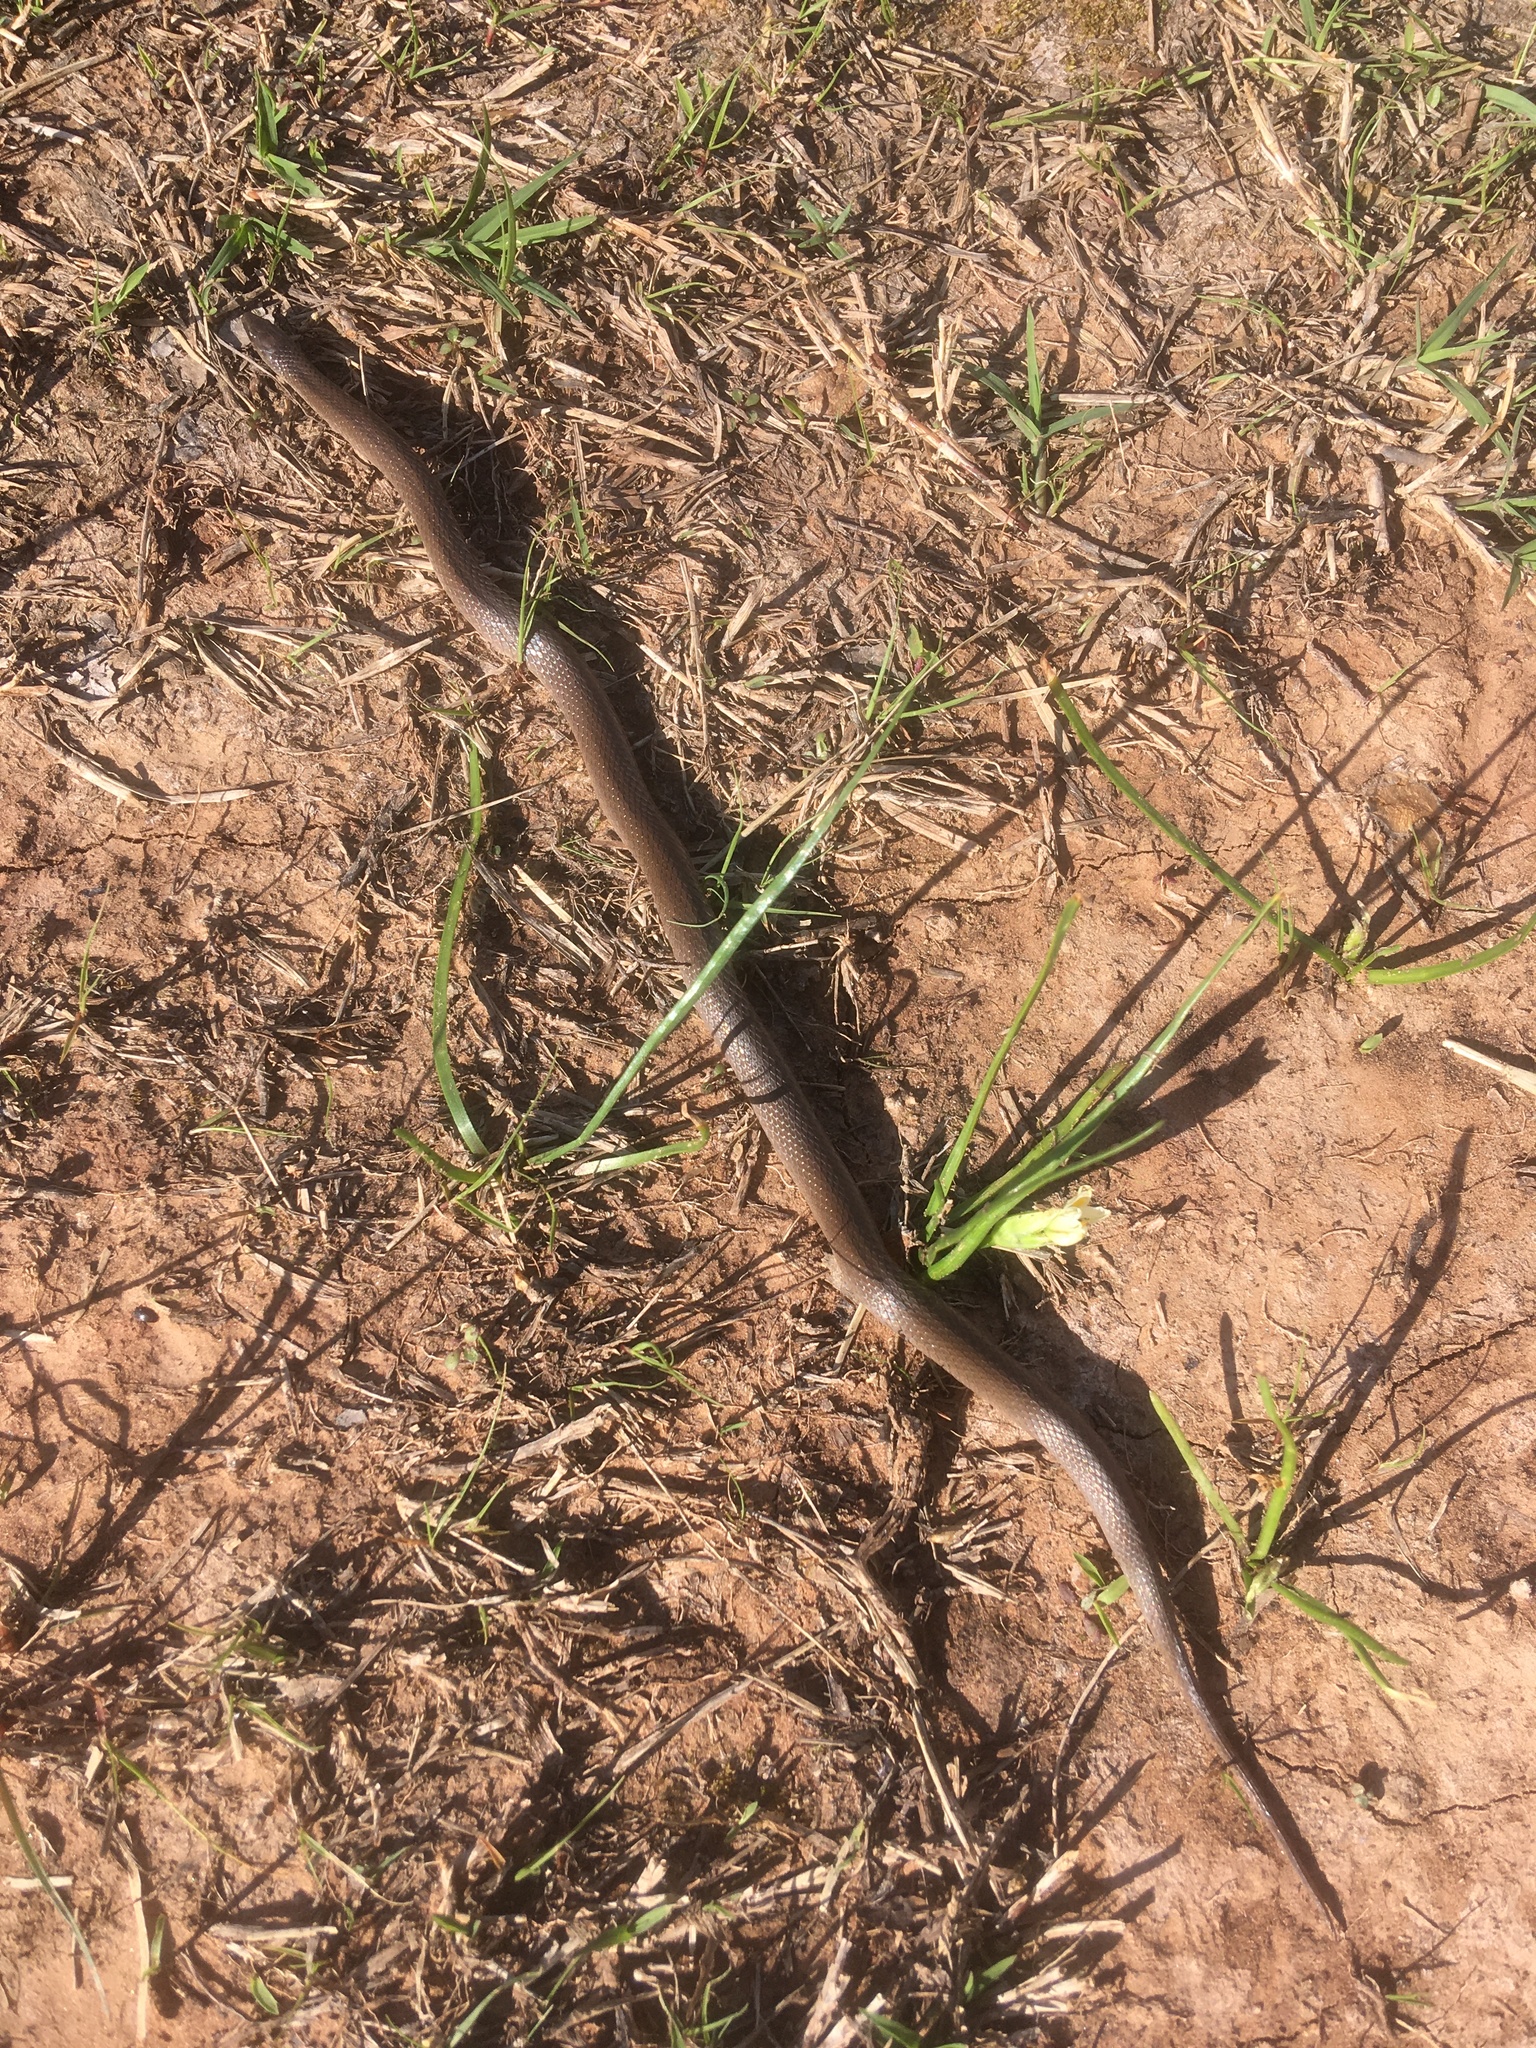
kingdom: Animalia
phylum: Chordata
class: Squamata
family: Colubridae
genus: Haldea
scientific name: Haldea striatula
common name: Rough earth snake
